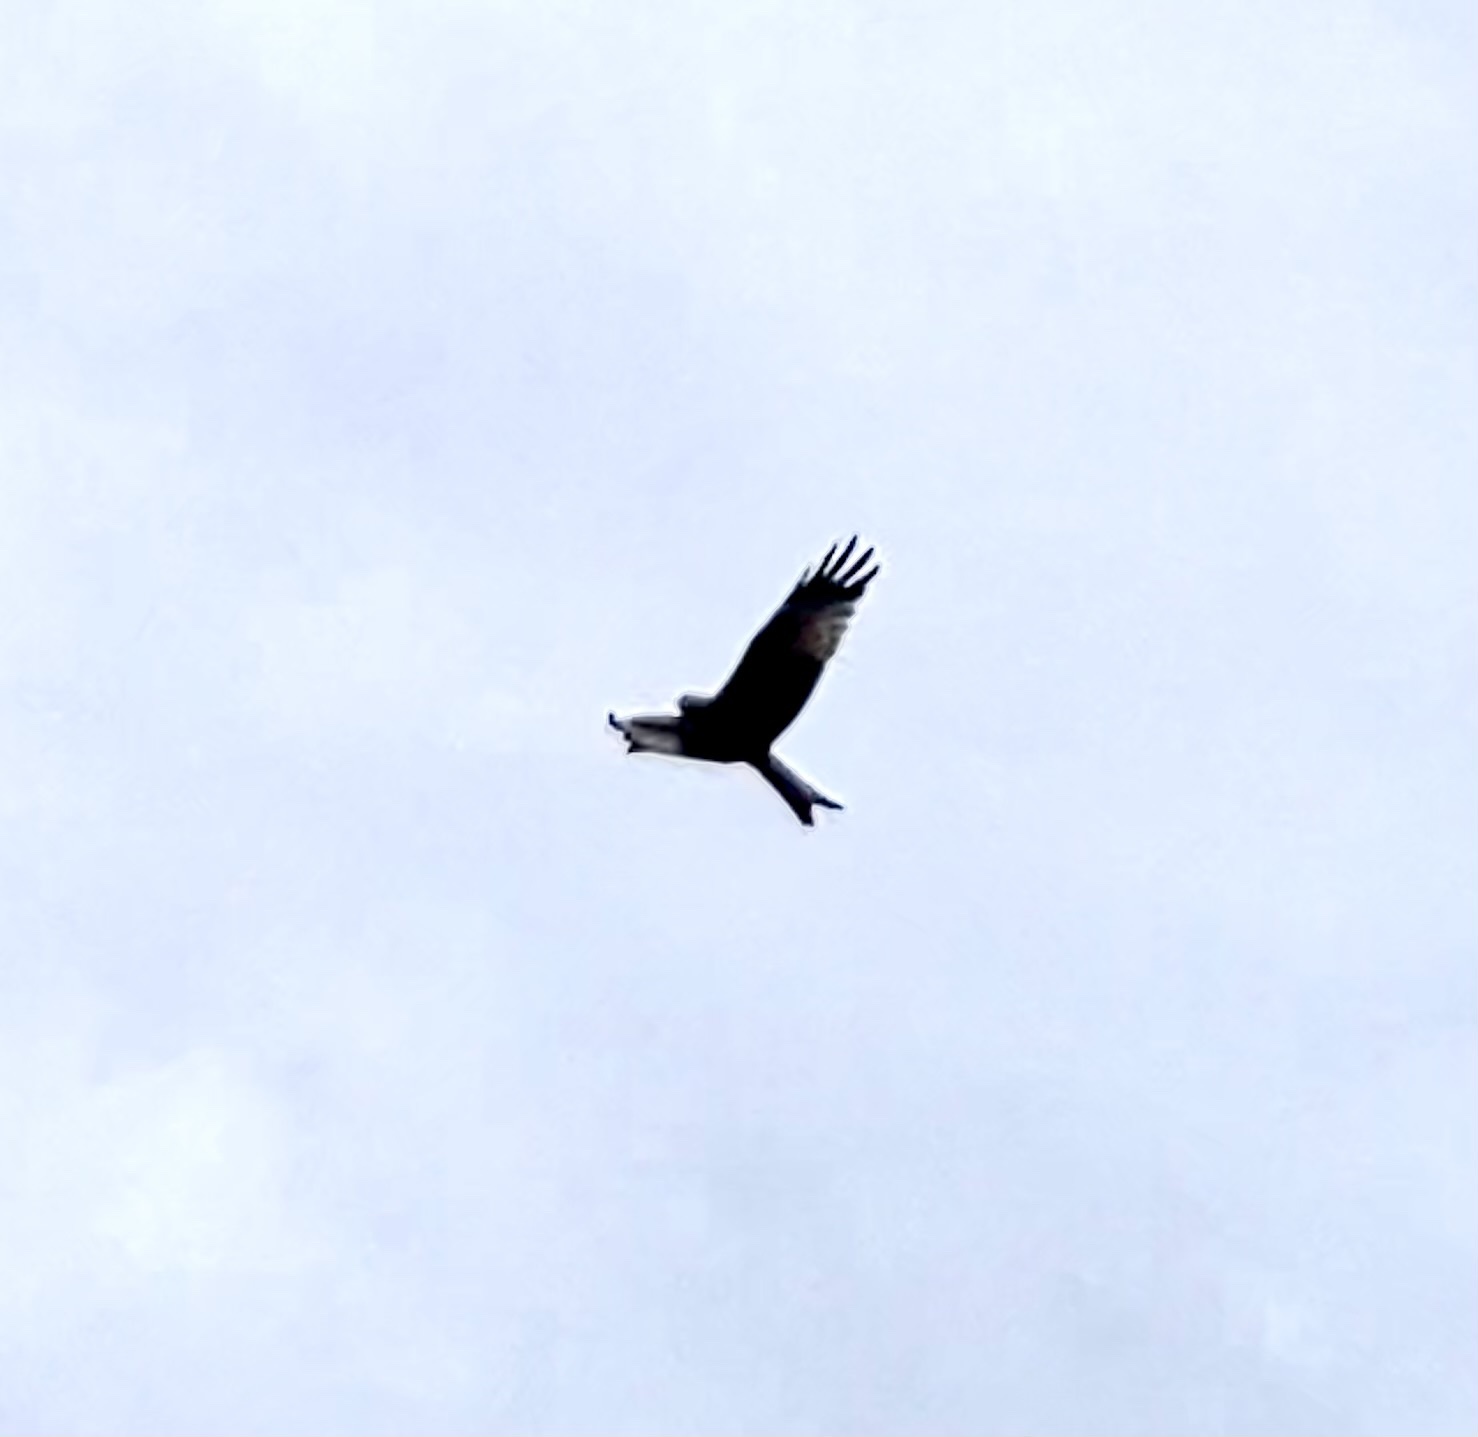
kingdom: Animalia
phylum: Chordata
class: Aves
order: Accipitriformes
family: Accipitridae
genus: Milvus
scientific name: Milvus milvus
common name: Red kite
